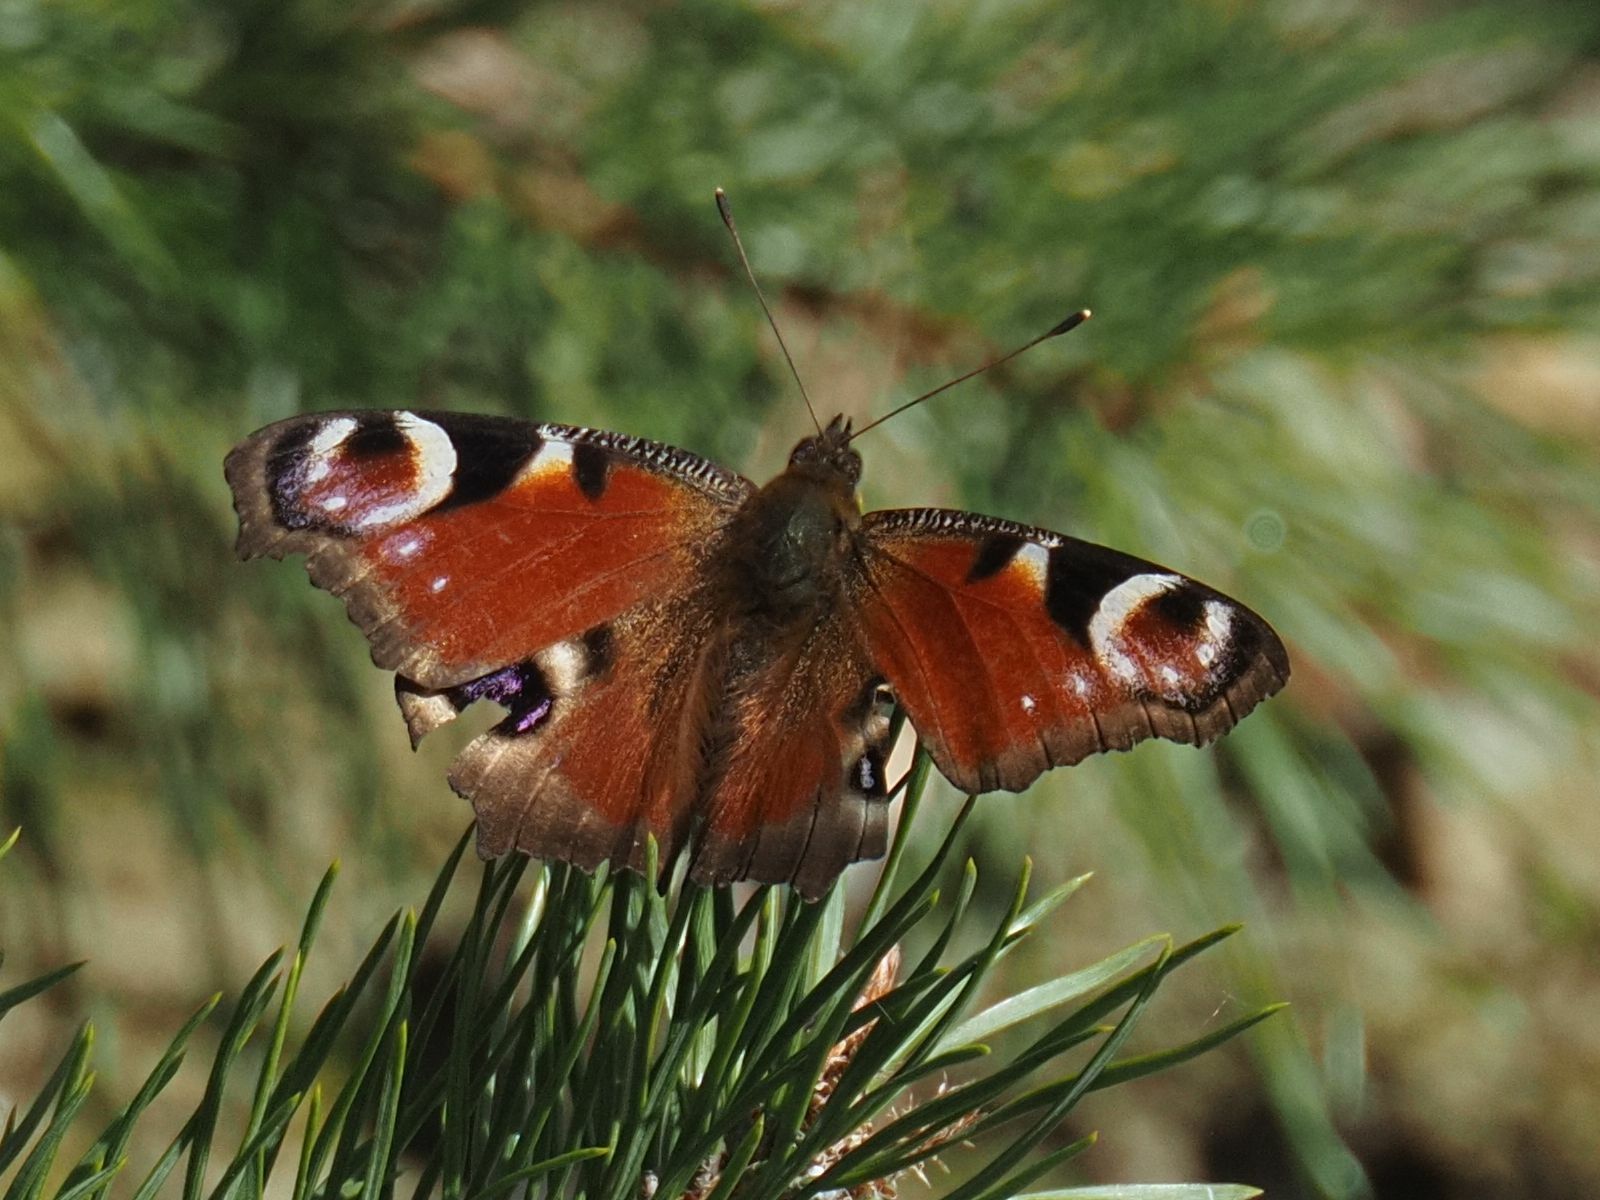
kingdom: Animalia
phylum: Arthropoda
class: Insecta
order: Lepidoptera
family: Nymphalidae
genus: Aglais
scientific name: Aglais io
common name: Peacock
